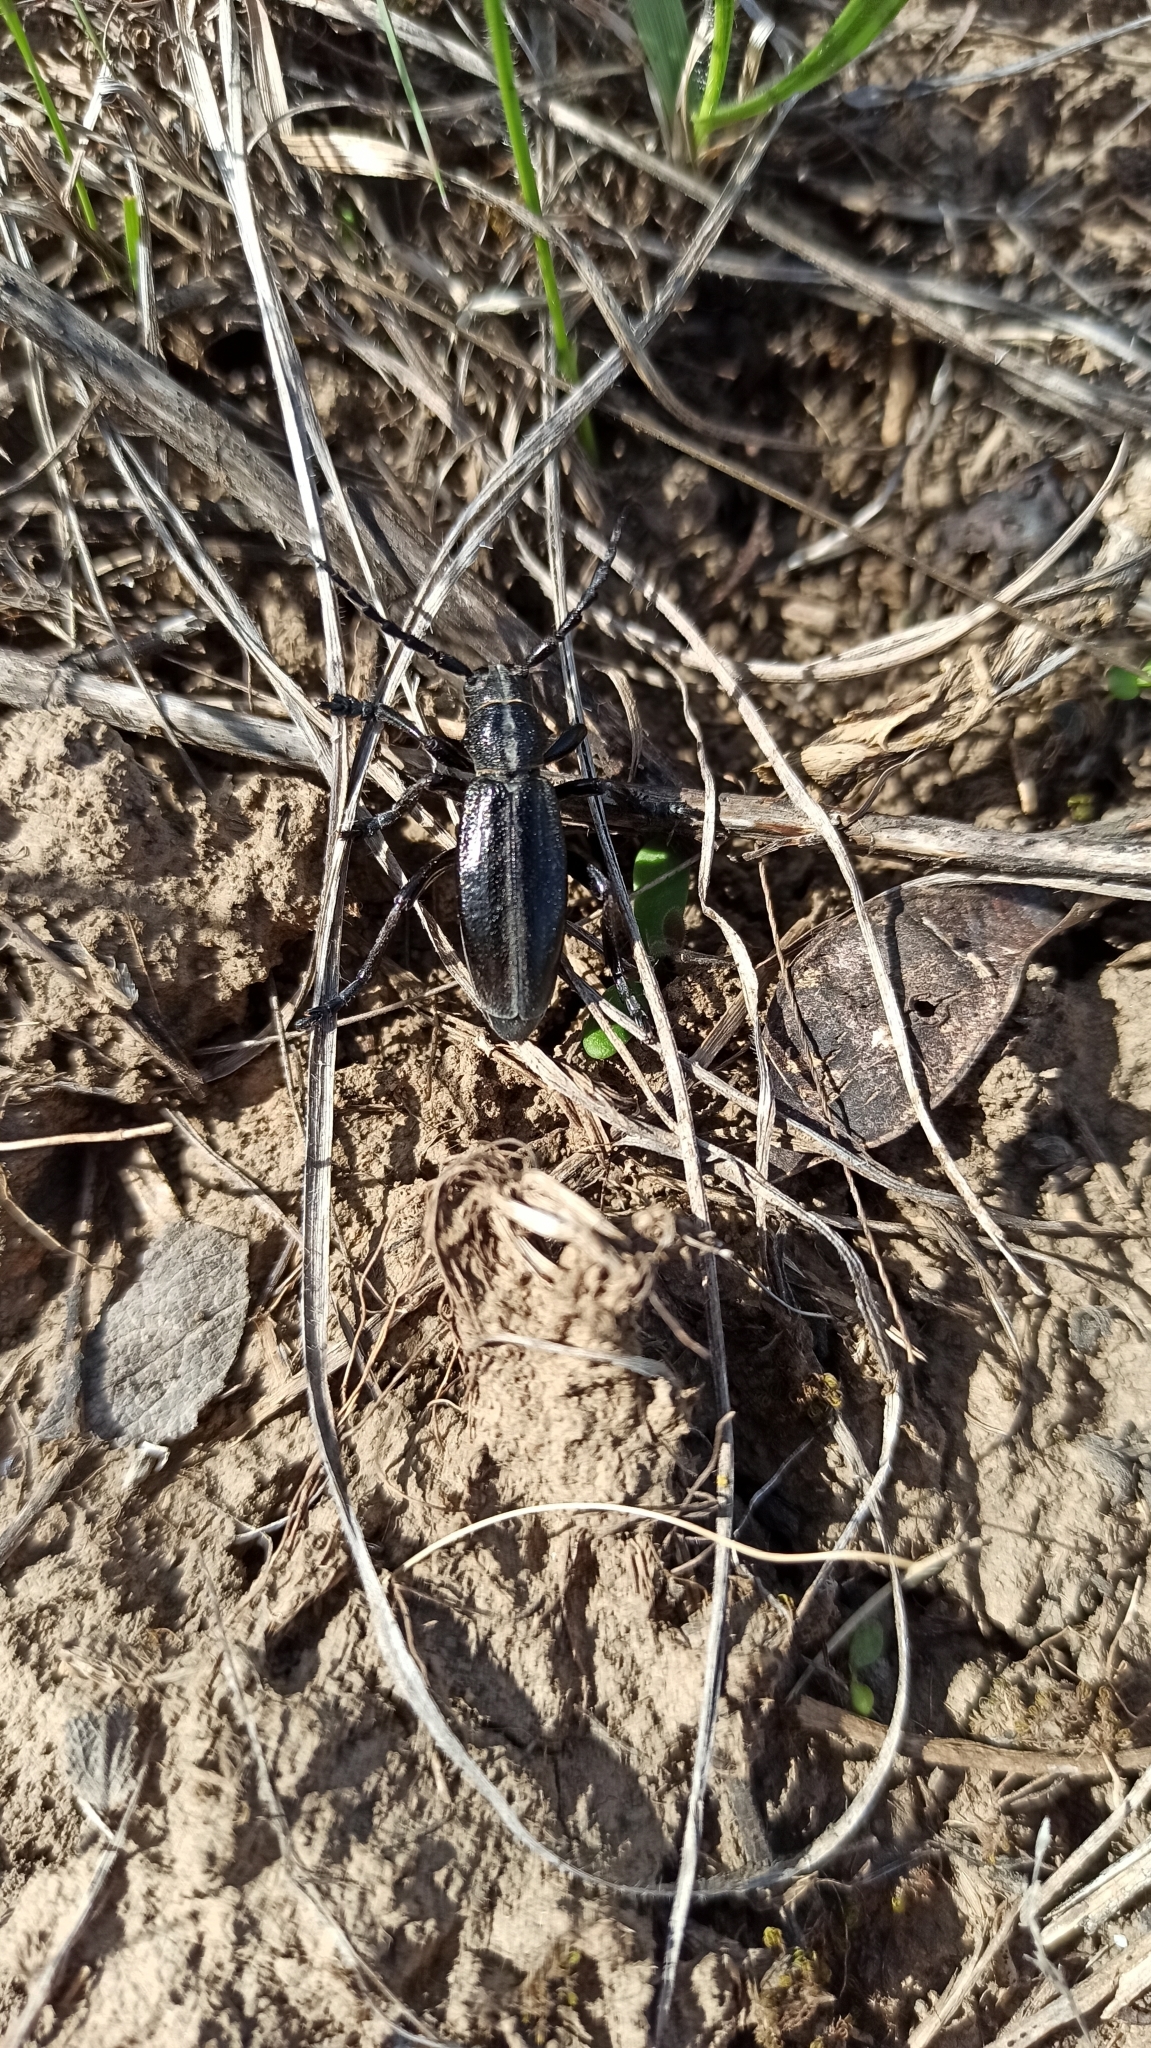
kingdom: Animalia
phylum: Arthropoda
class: Insecta
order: Coleoptera
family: Cerambycidae
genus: Dorcadion
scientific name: Dorcadion carinatum
